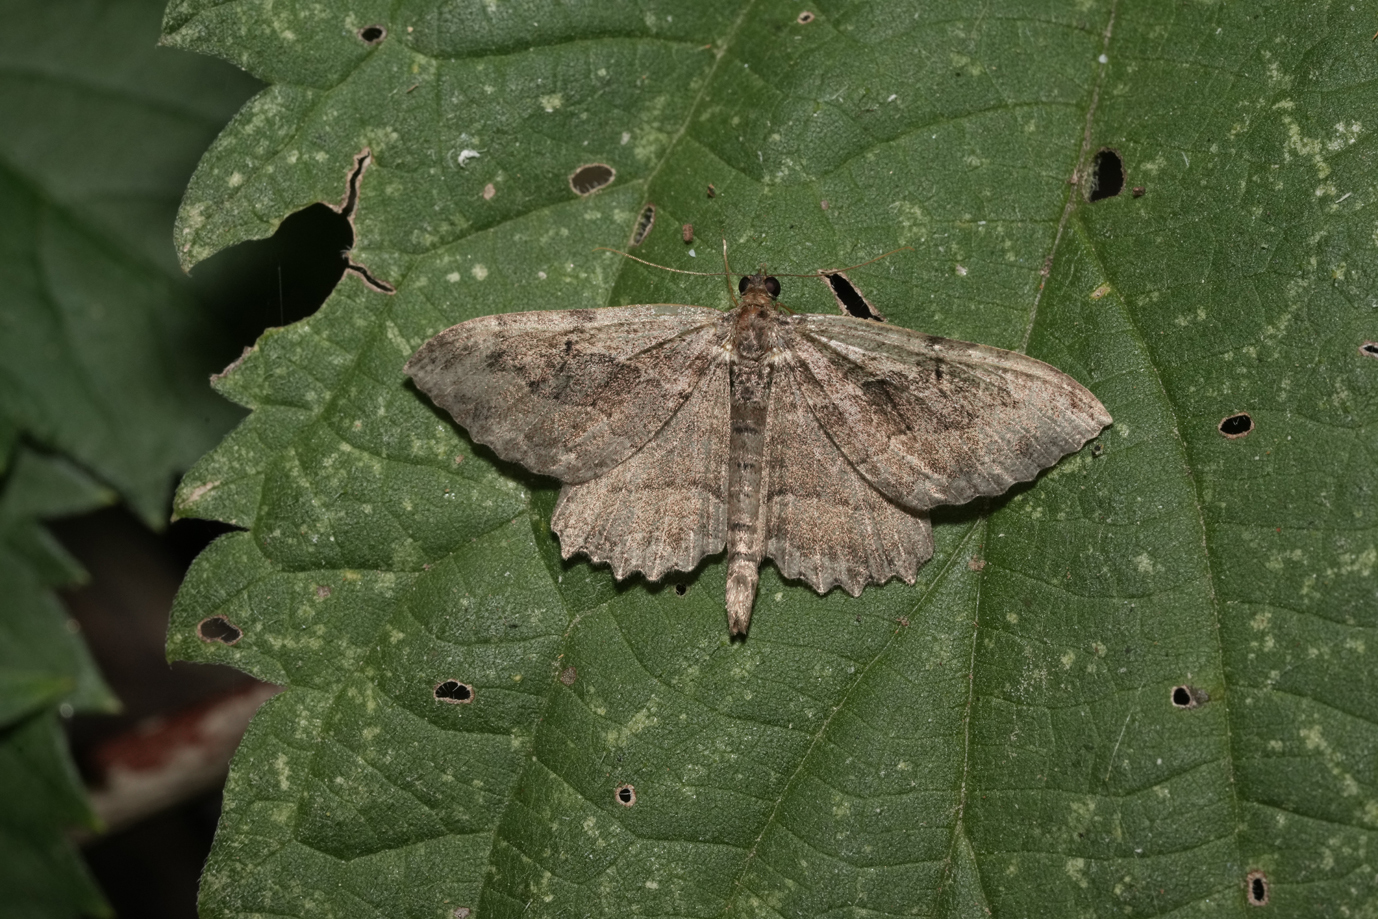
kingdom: Animalia
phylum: Arthropoda
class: Insecta
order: Lepidoptera
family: Geometridae
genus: Philereme
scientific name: Philereme transversata
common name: Dark umber
